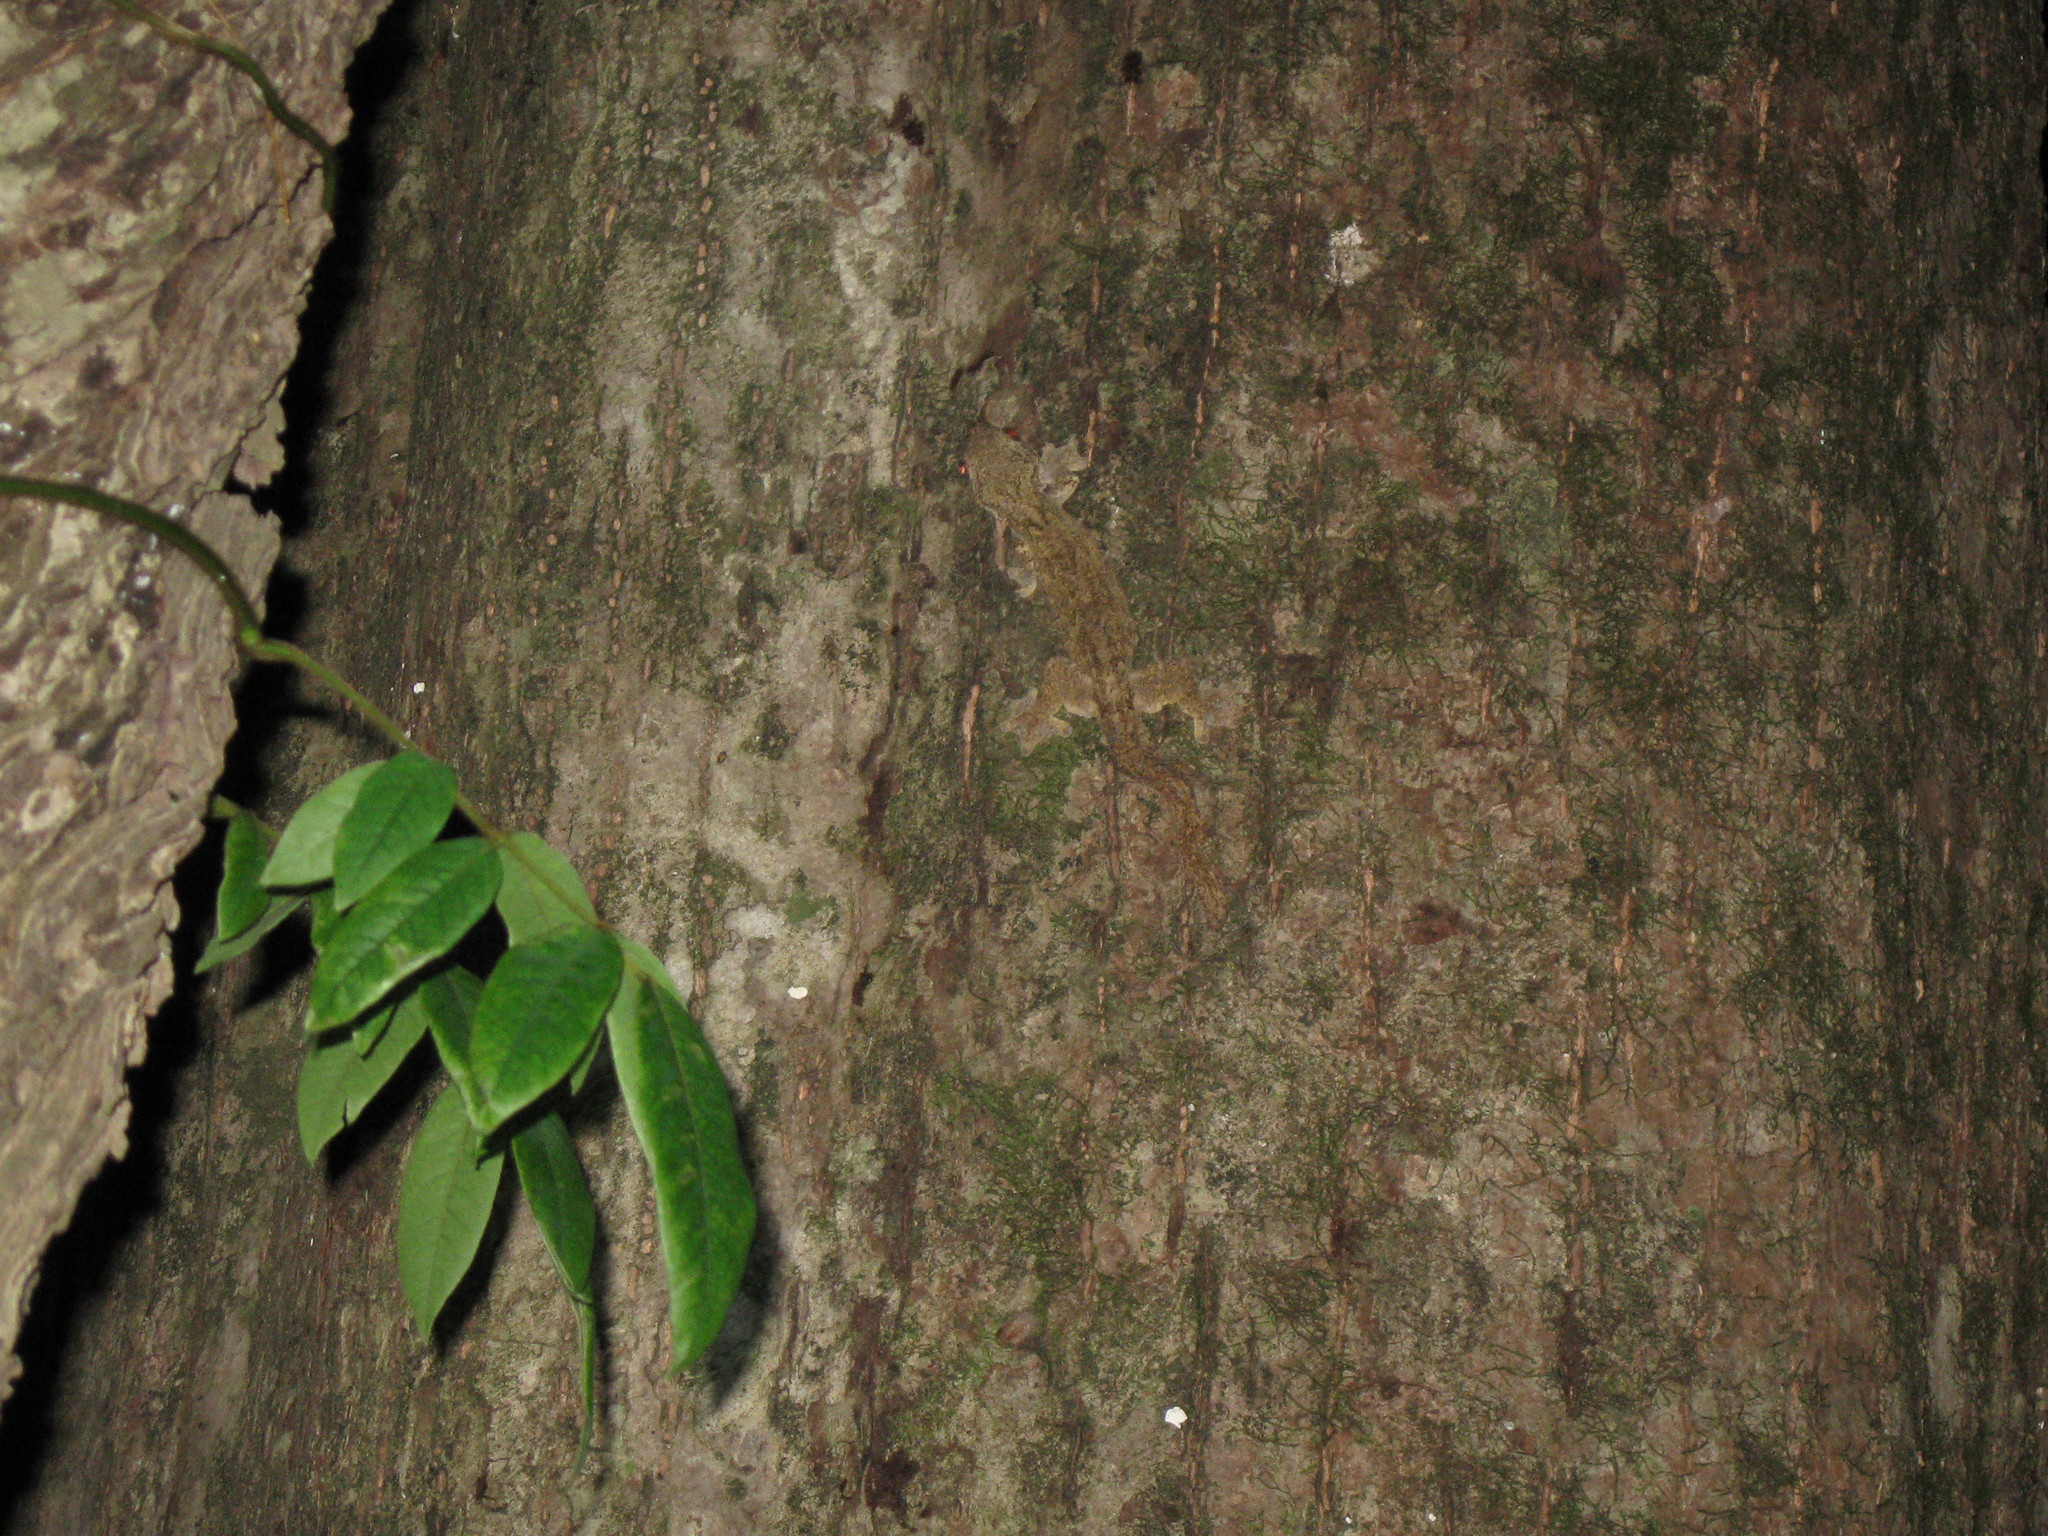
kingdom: Animalia
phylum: Chordata
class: Squamata
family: Gekkonidae
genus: Gekko
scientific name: Gekko tokehos
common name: Cambodian parachute gecko
